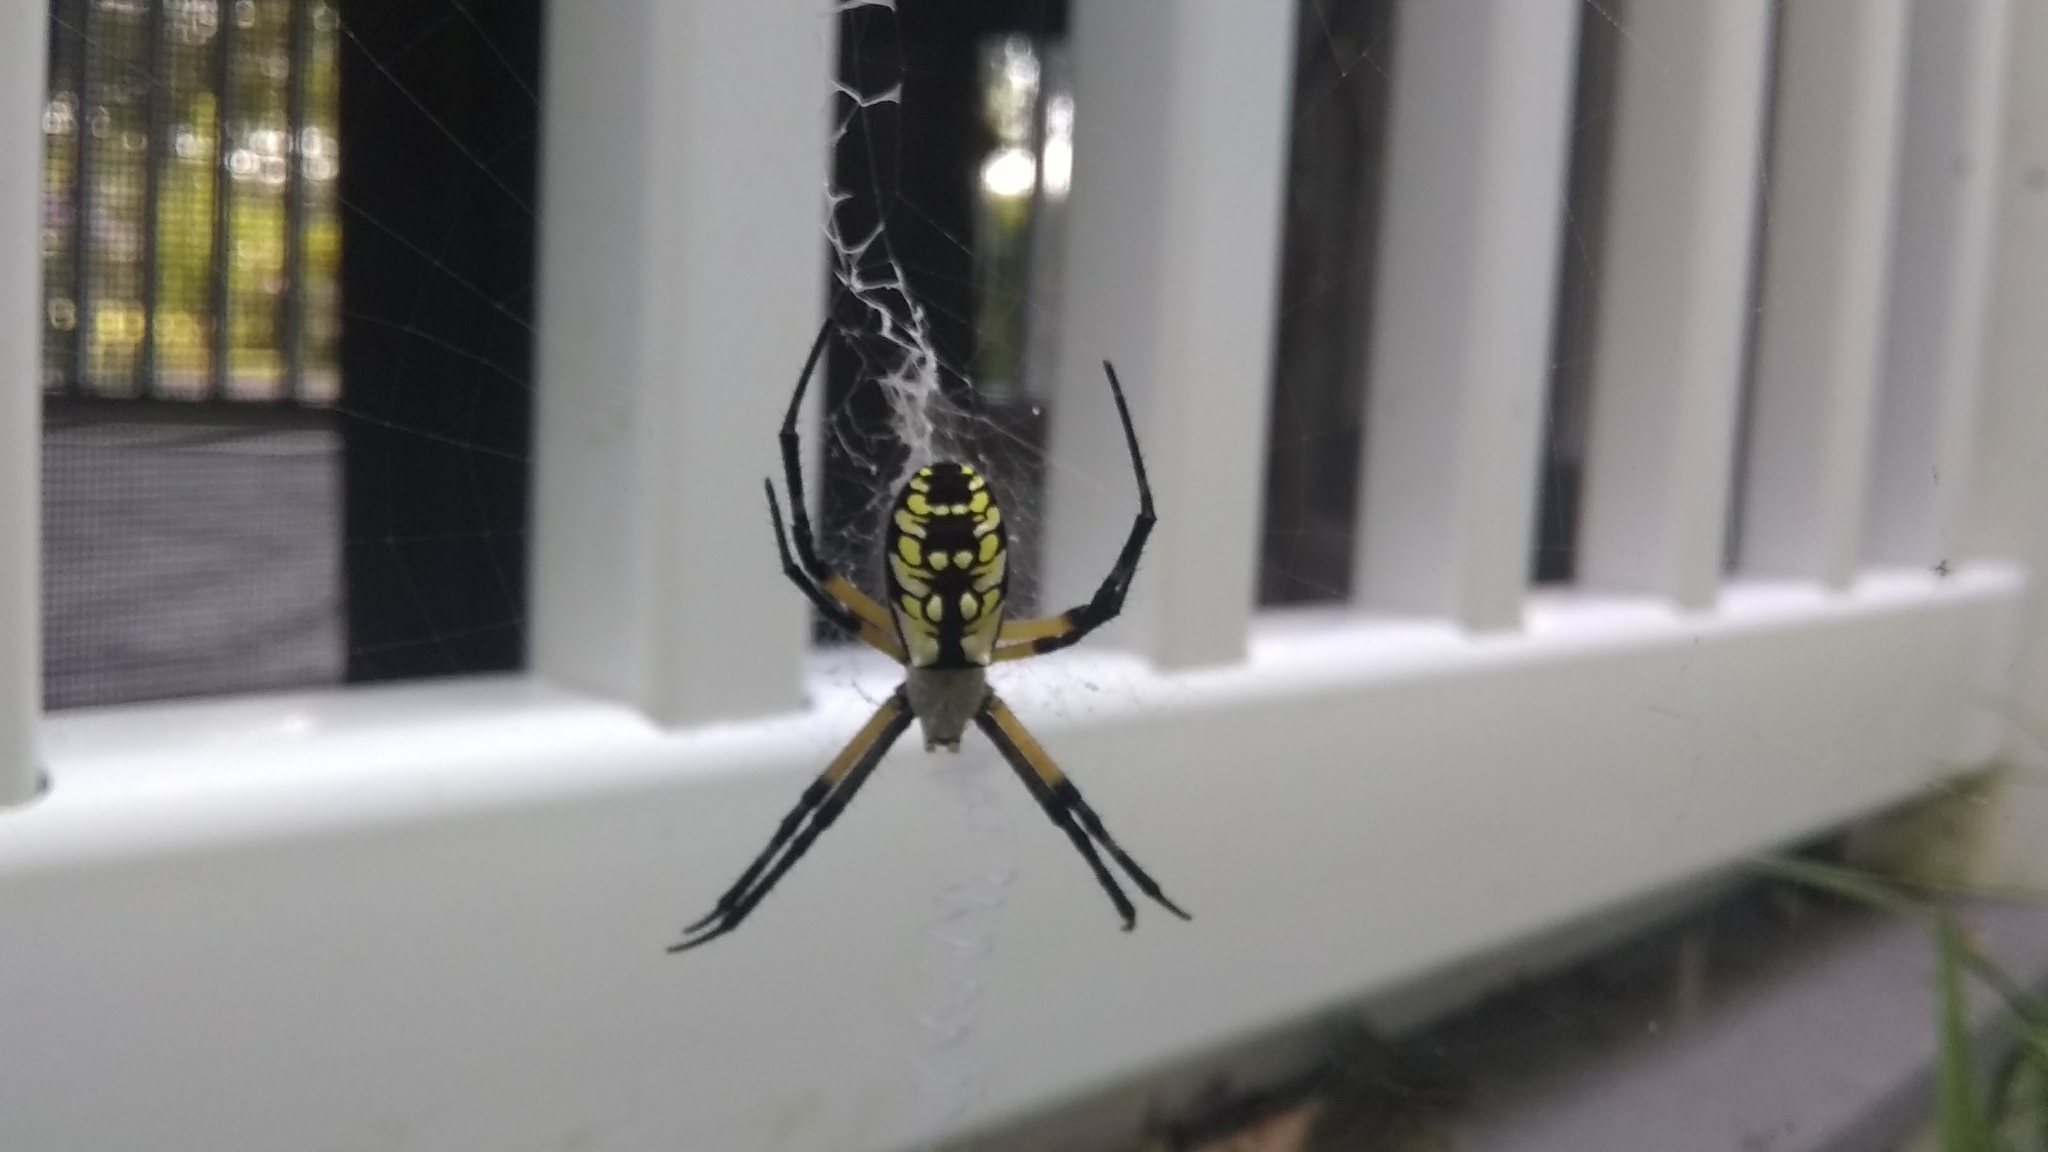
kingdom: Animalia
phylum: Arthropoda
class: Arachnida
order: Araneae
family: Araneidae
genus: Argiope
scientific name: Argiope aurantia
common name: Orb weavers
